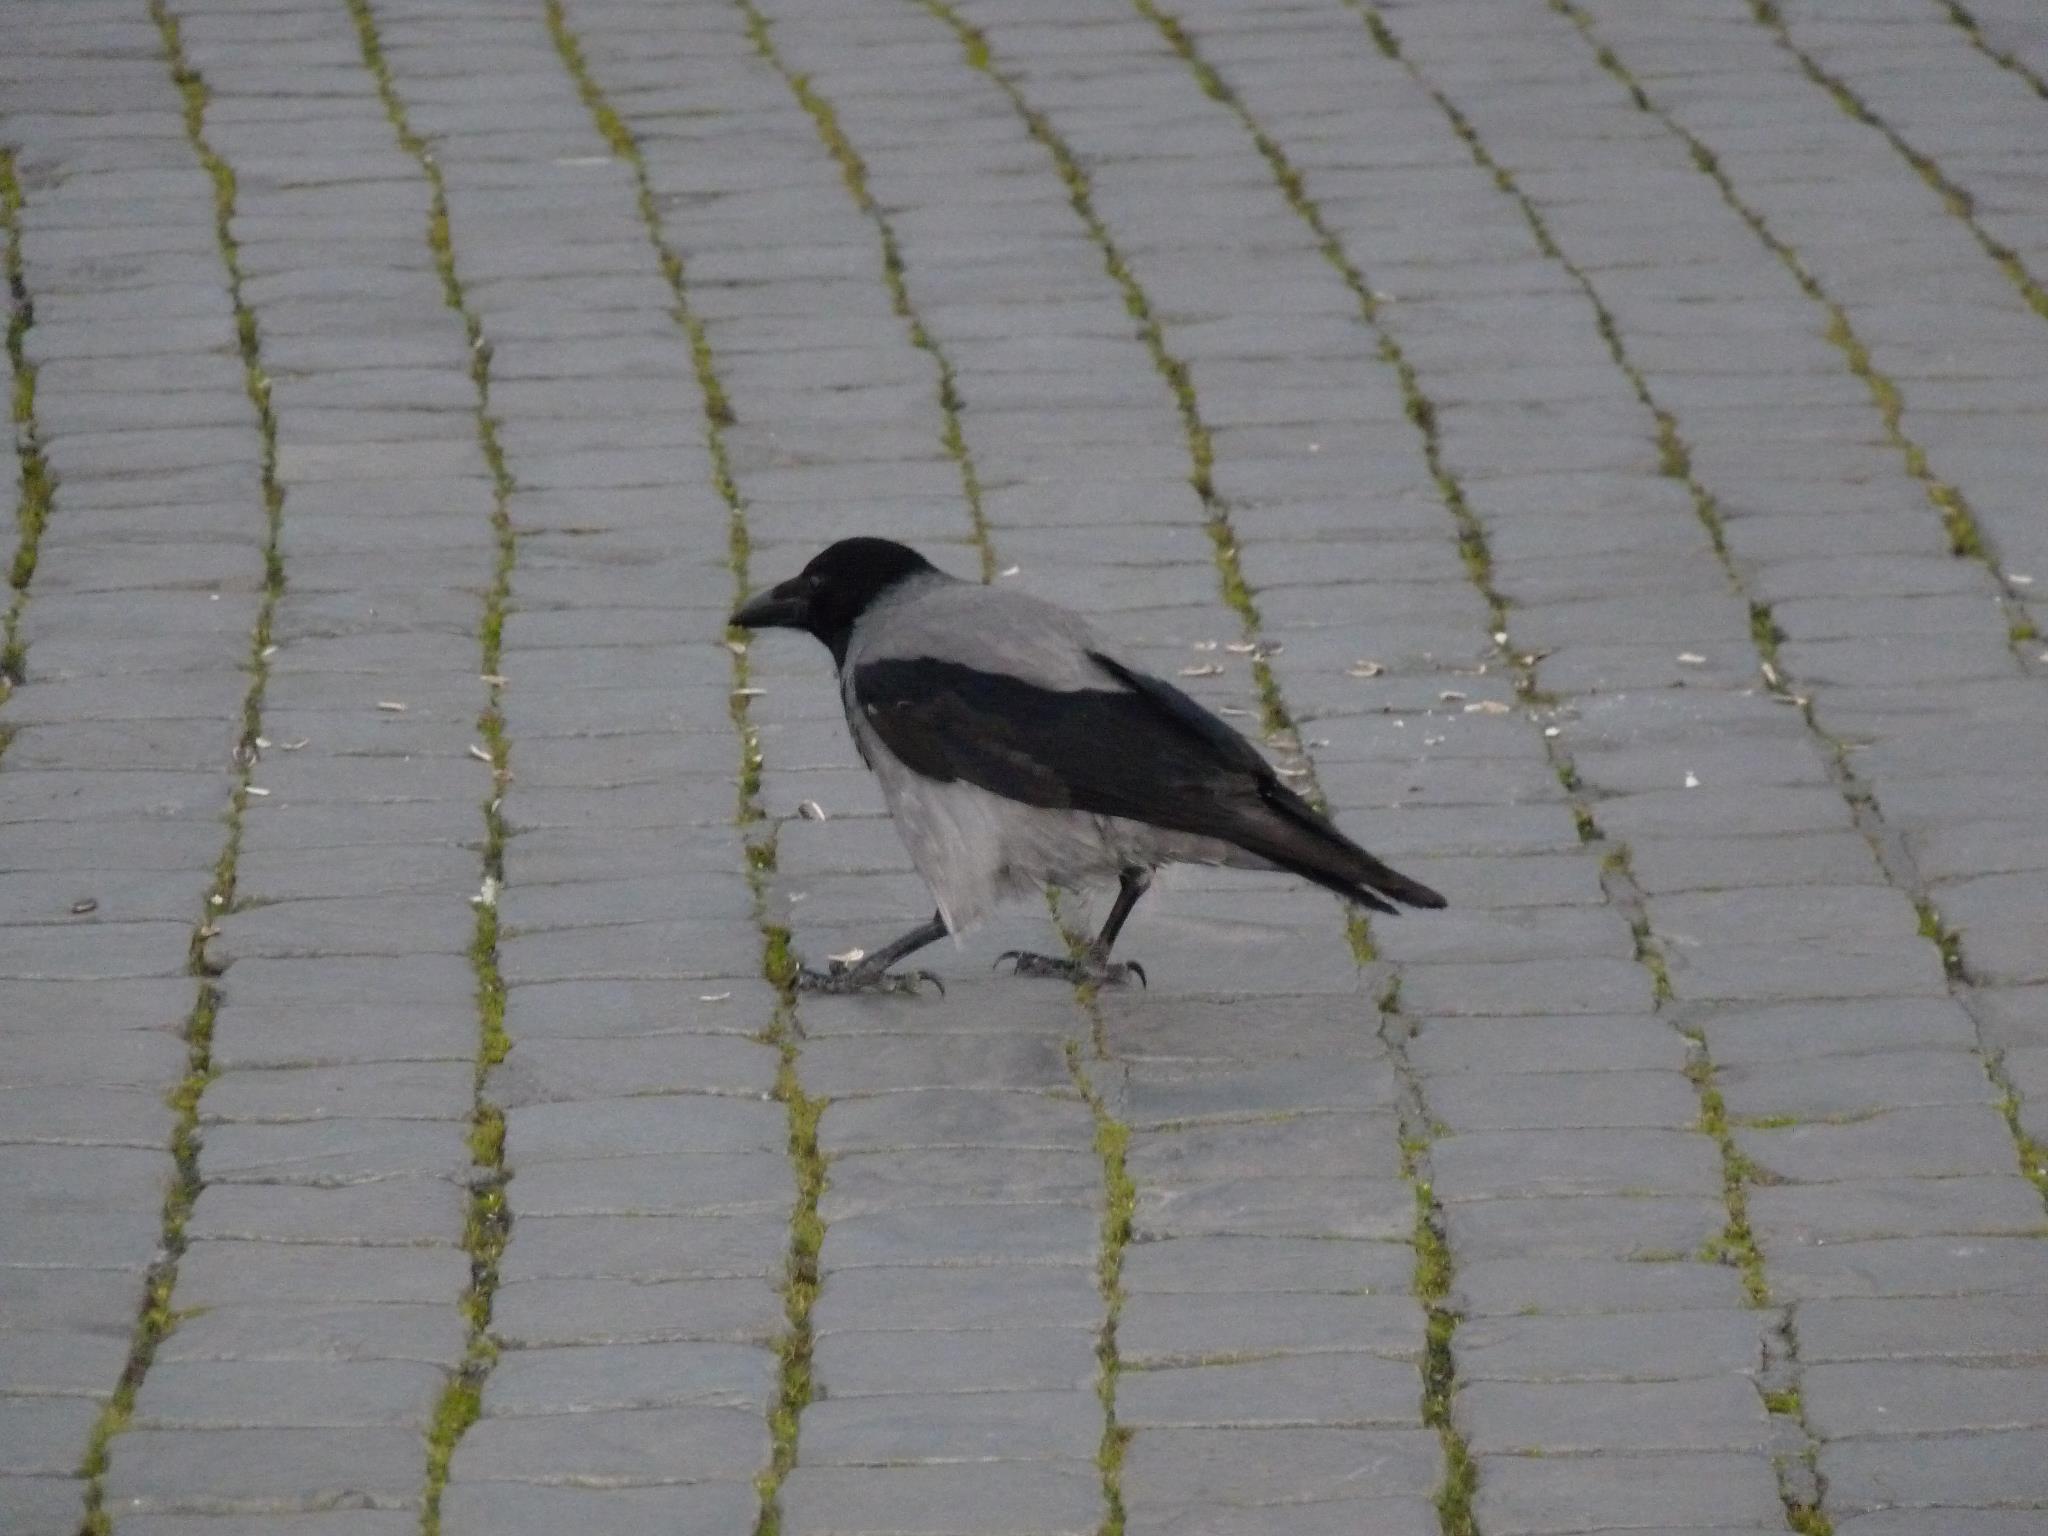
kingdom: Animalia
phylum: Chordata
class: Aves
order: Passeriformes
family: Corvidae
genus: Corvus
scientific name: Corvus cornix
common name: Hooded crow
